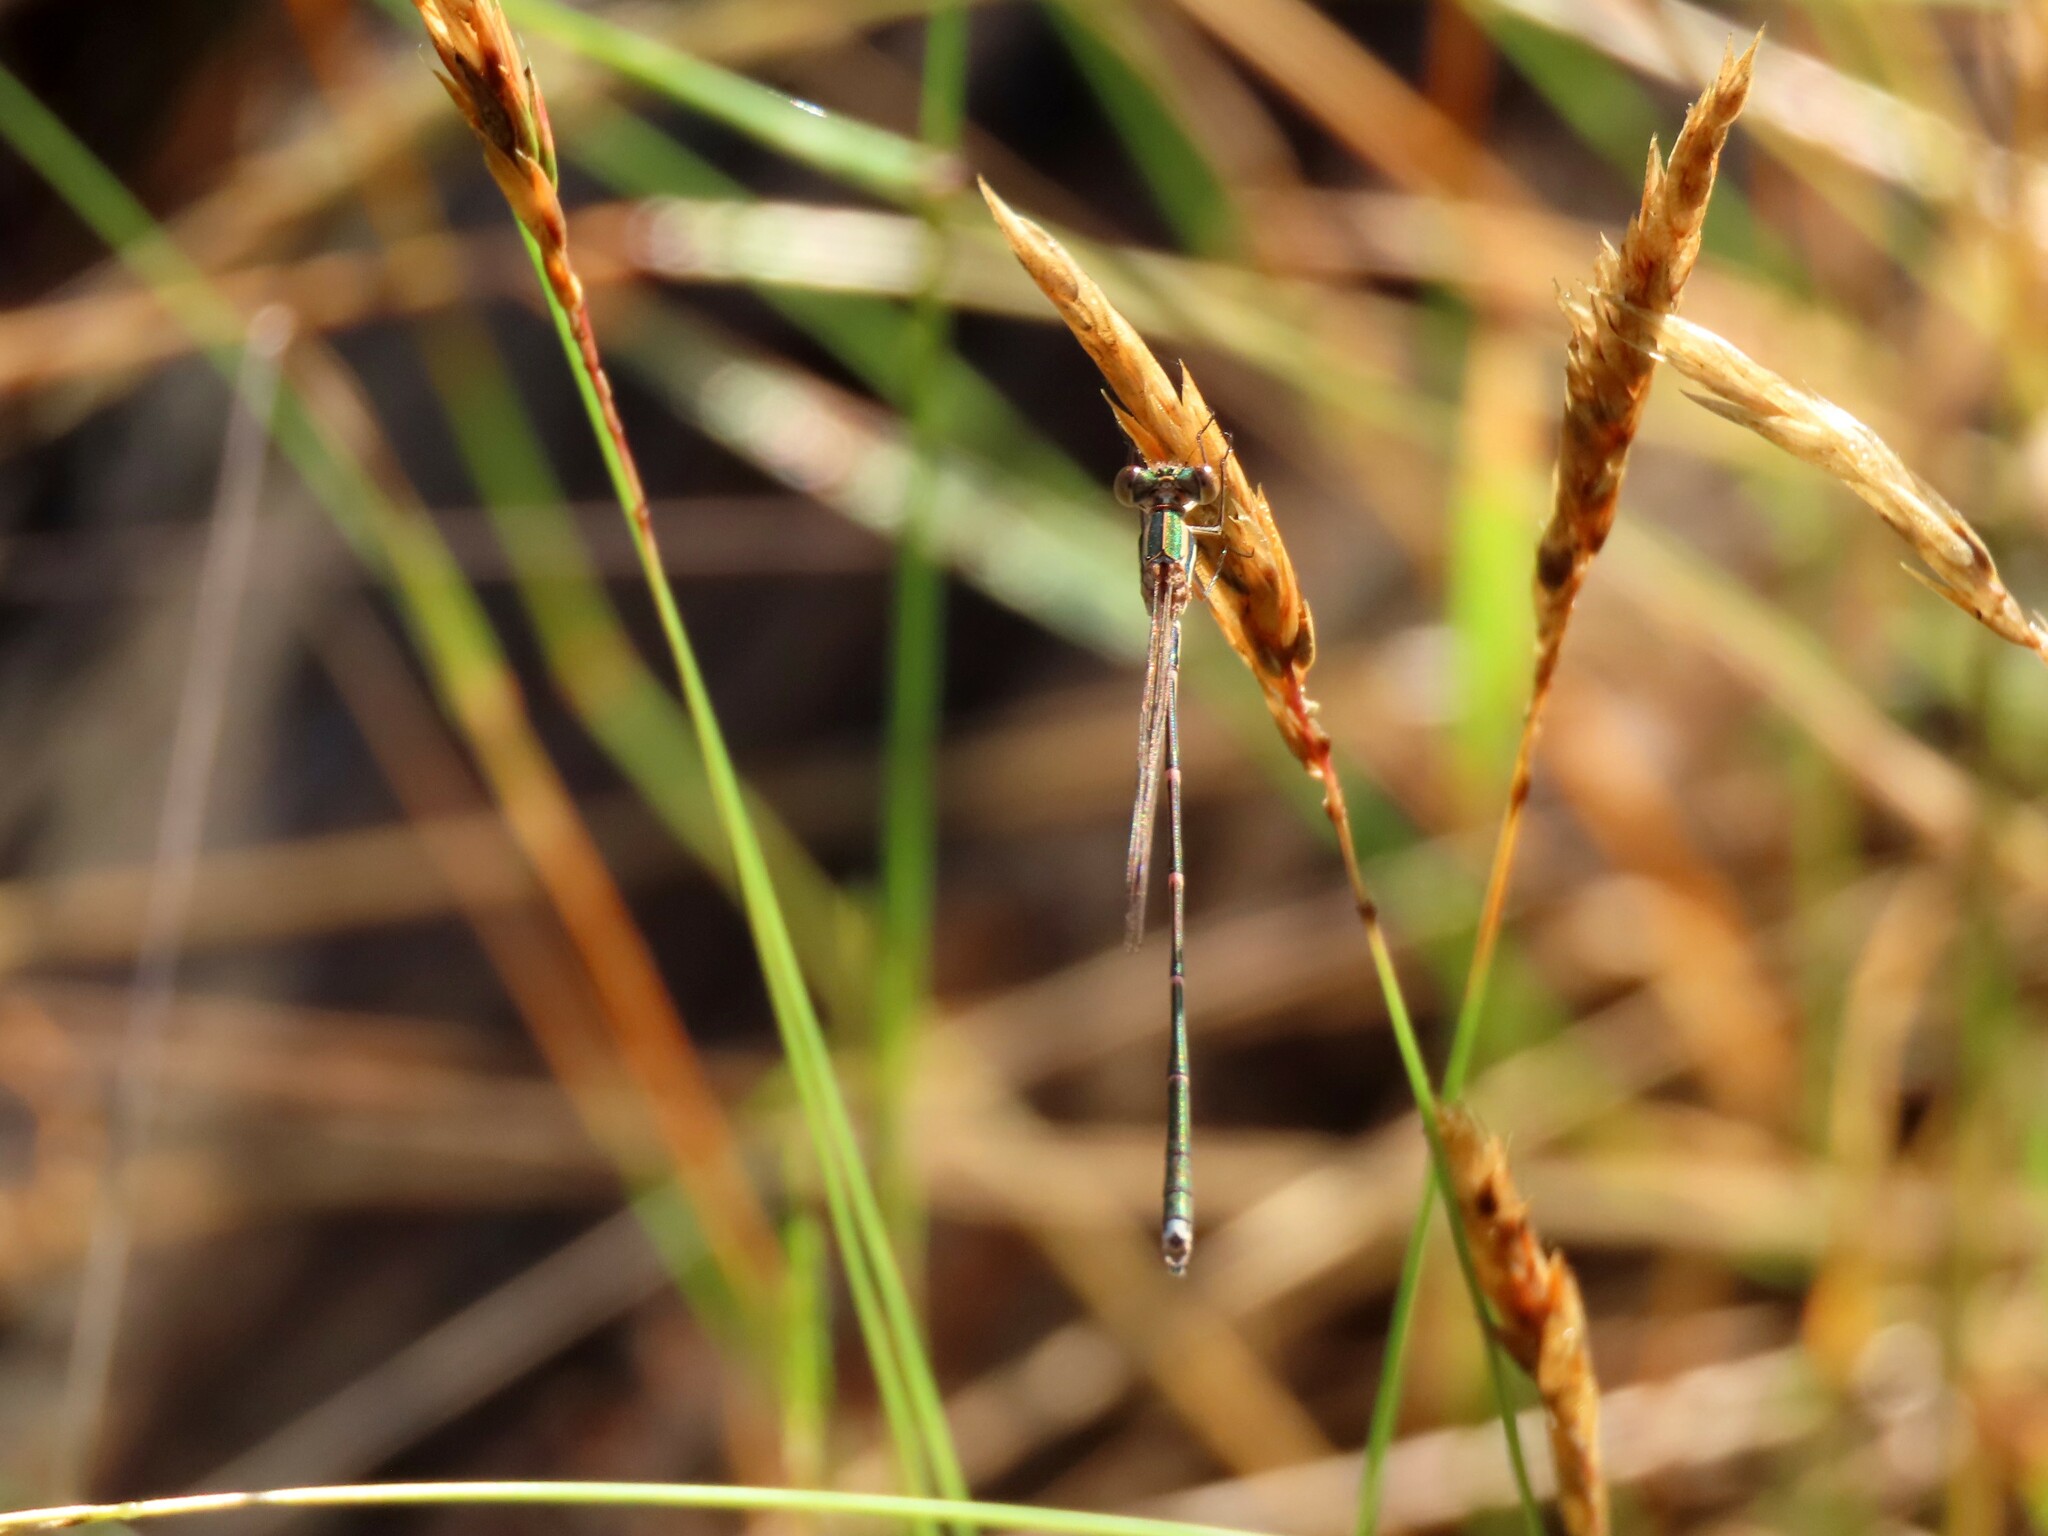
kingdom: Animalia
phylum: Arthropoda
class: Insecta
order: Odonata
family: Lestidae
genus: Austrolestes
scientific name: Austrolestes analis
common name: Slender ringtail
